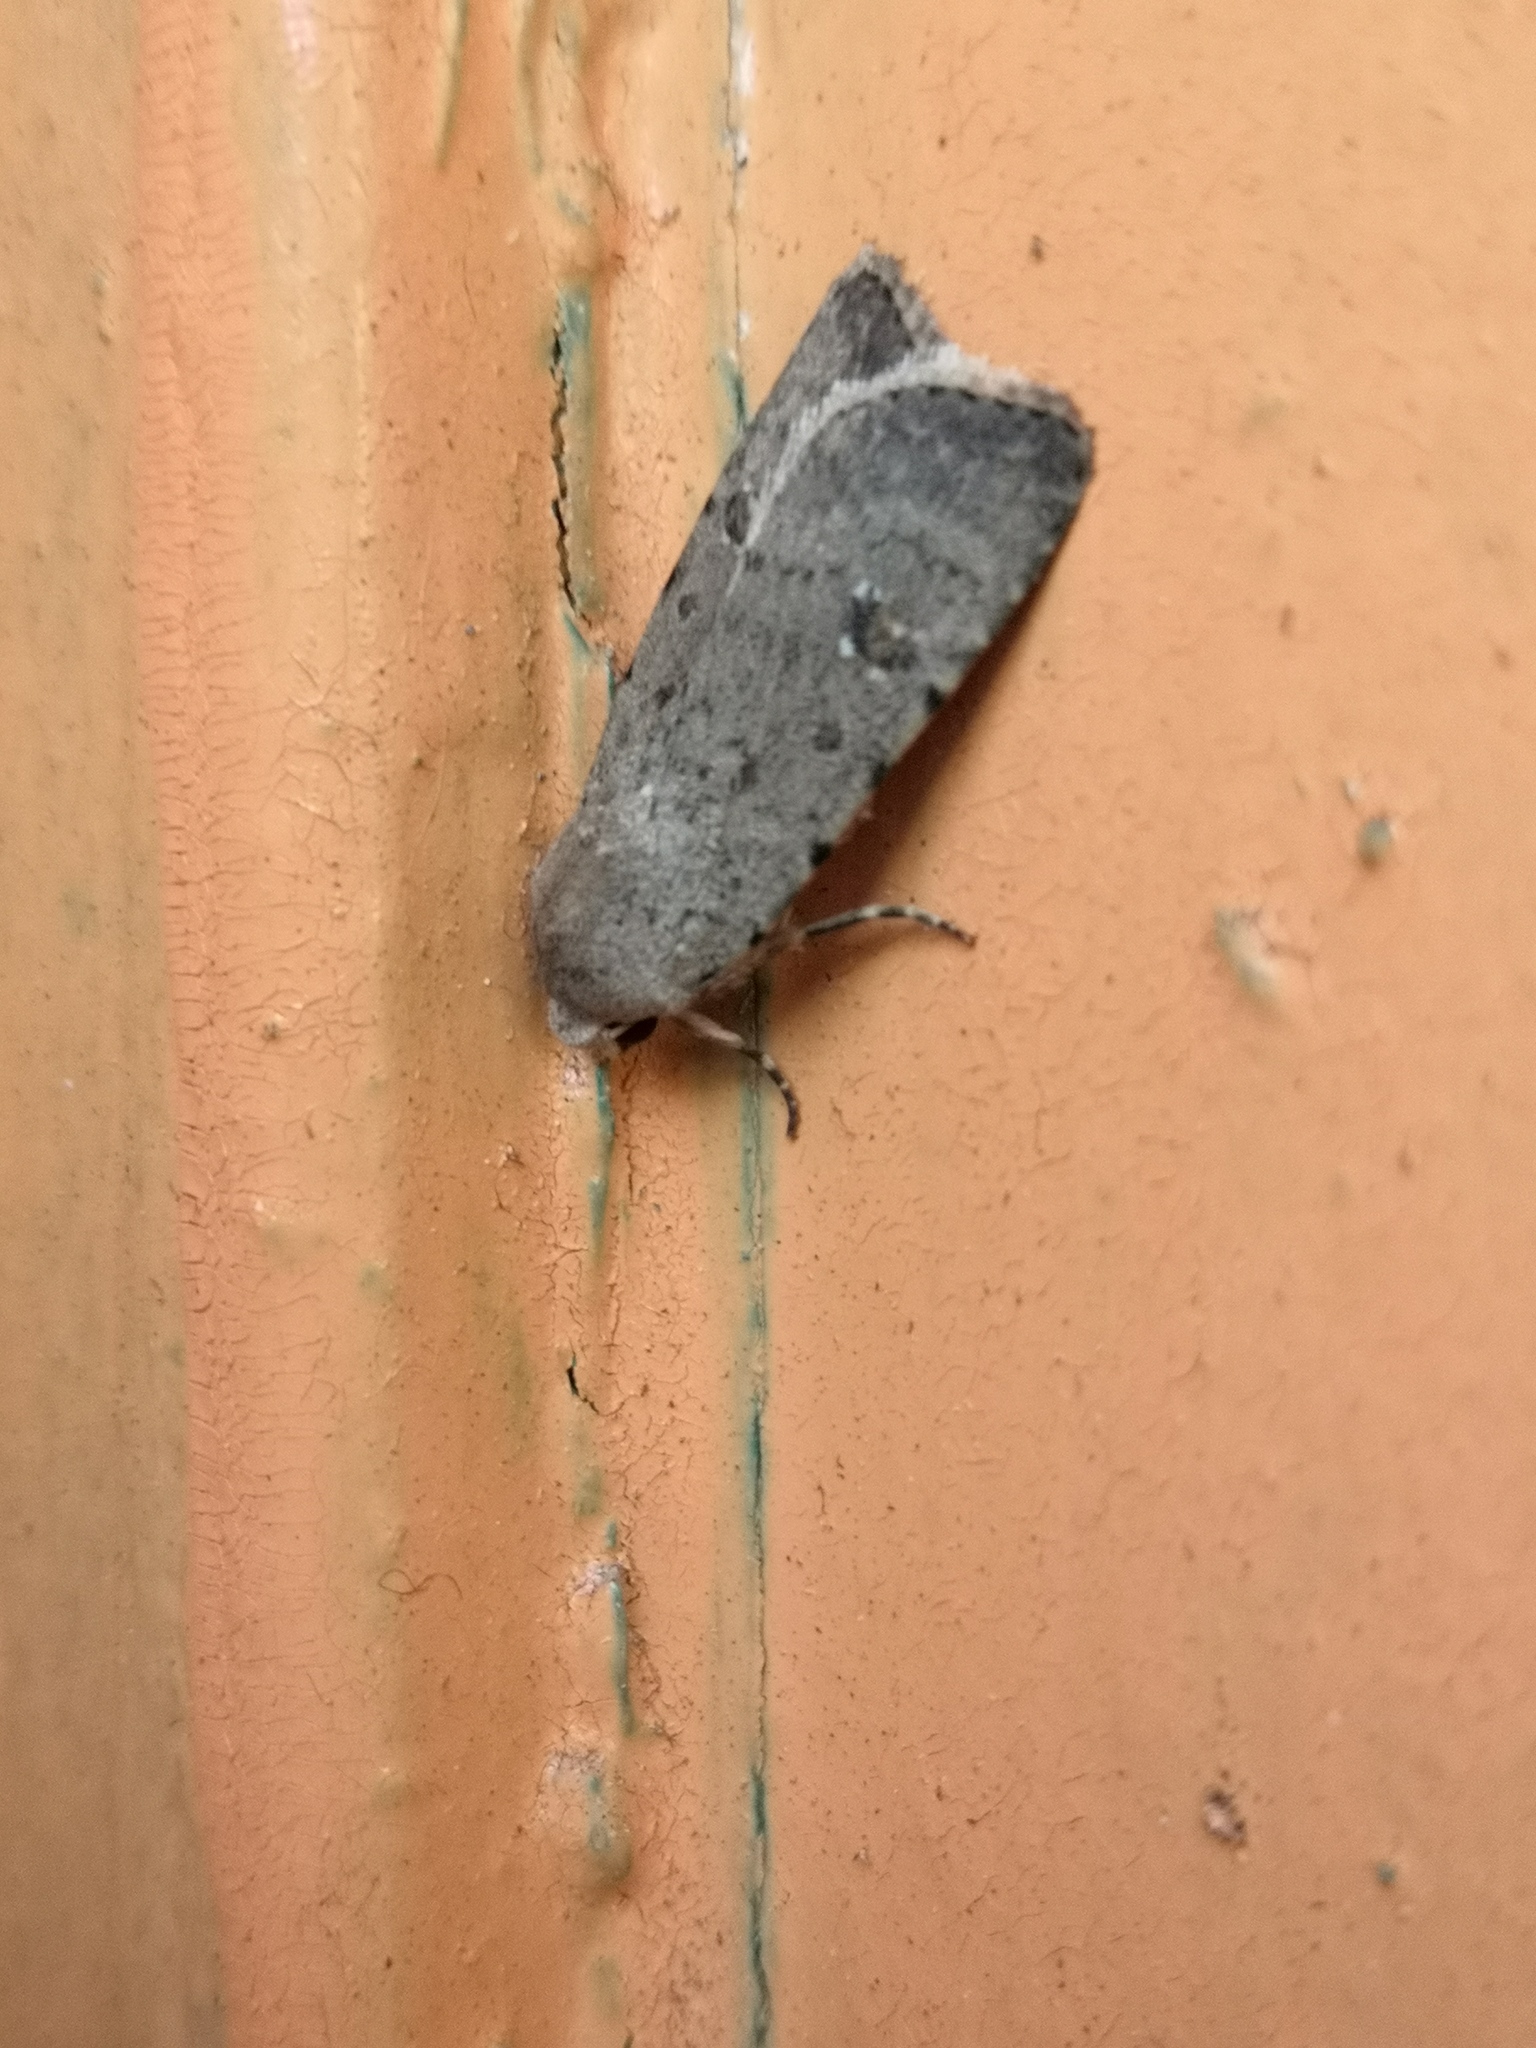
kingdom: Animalia
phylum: Arthropoda
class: Insecta
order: Lepidoptera
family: Noctuidae
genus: Caradrina
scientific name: Caradrina clavipalpis
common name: Pale mottled willow
